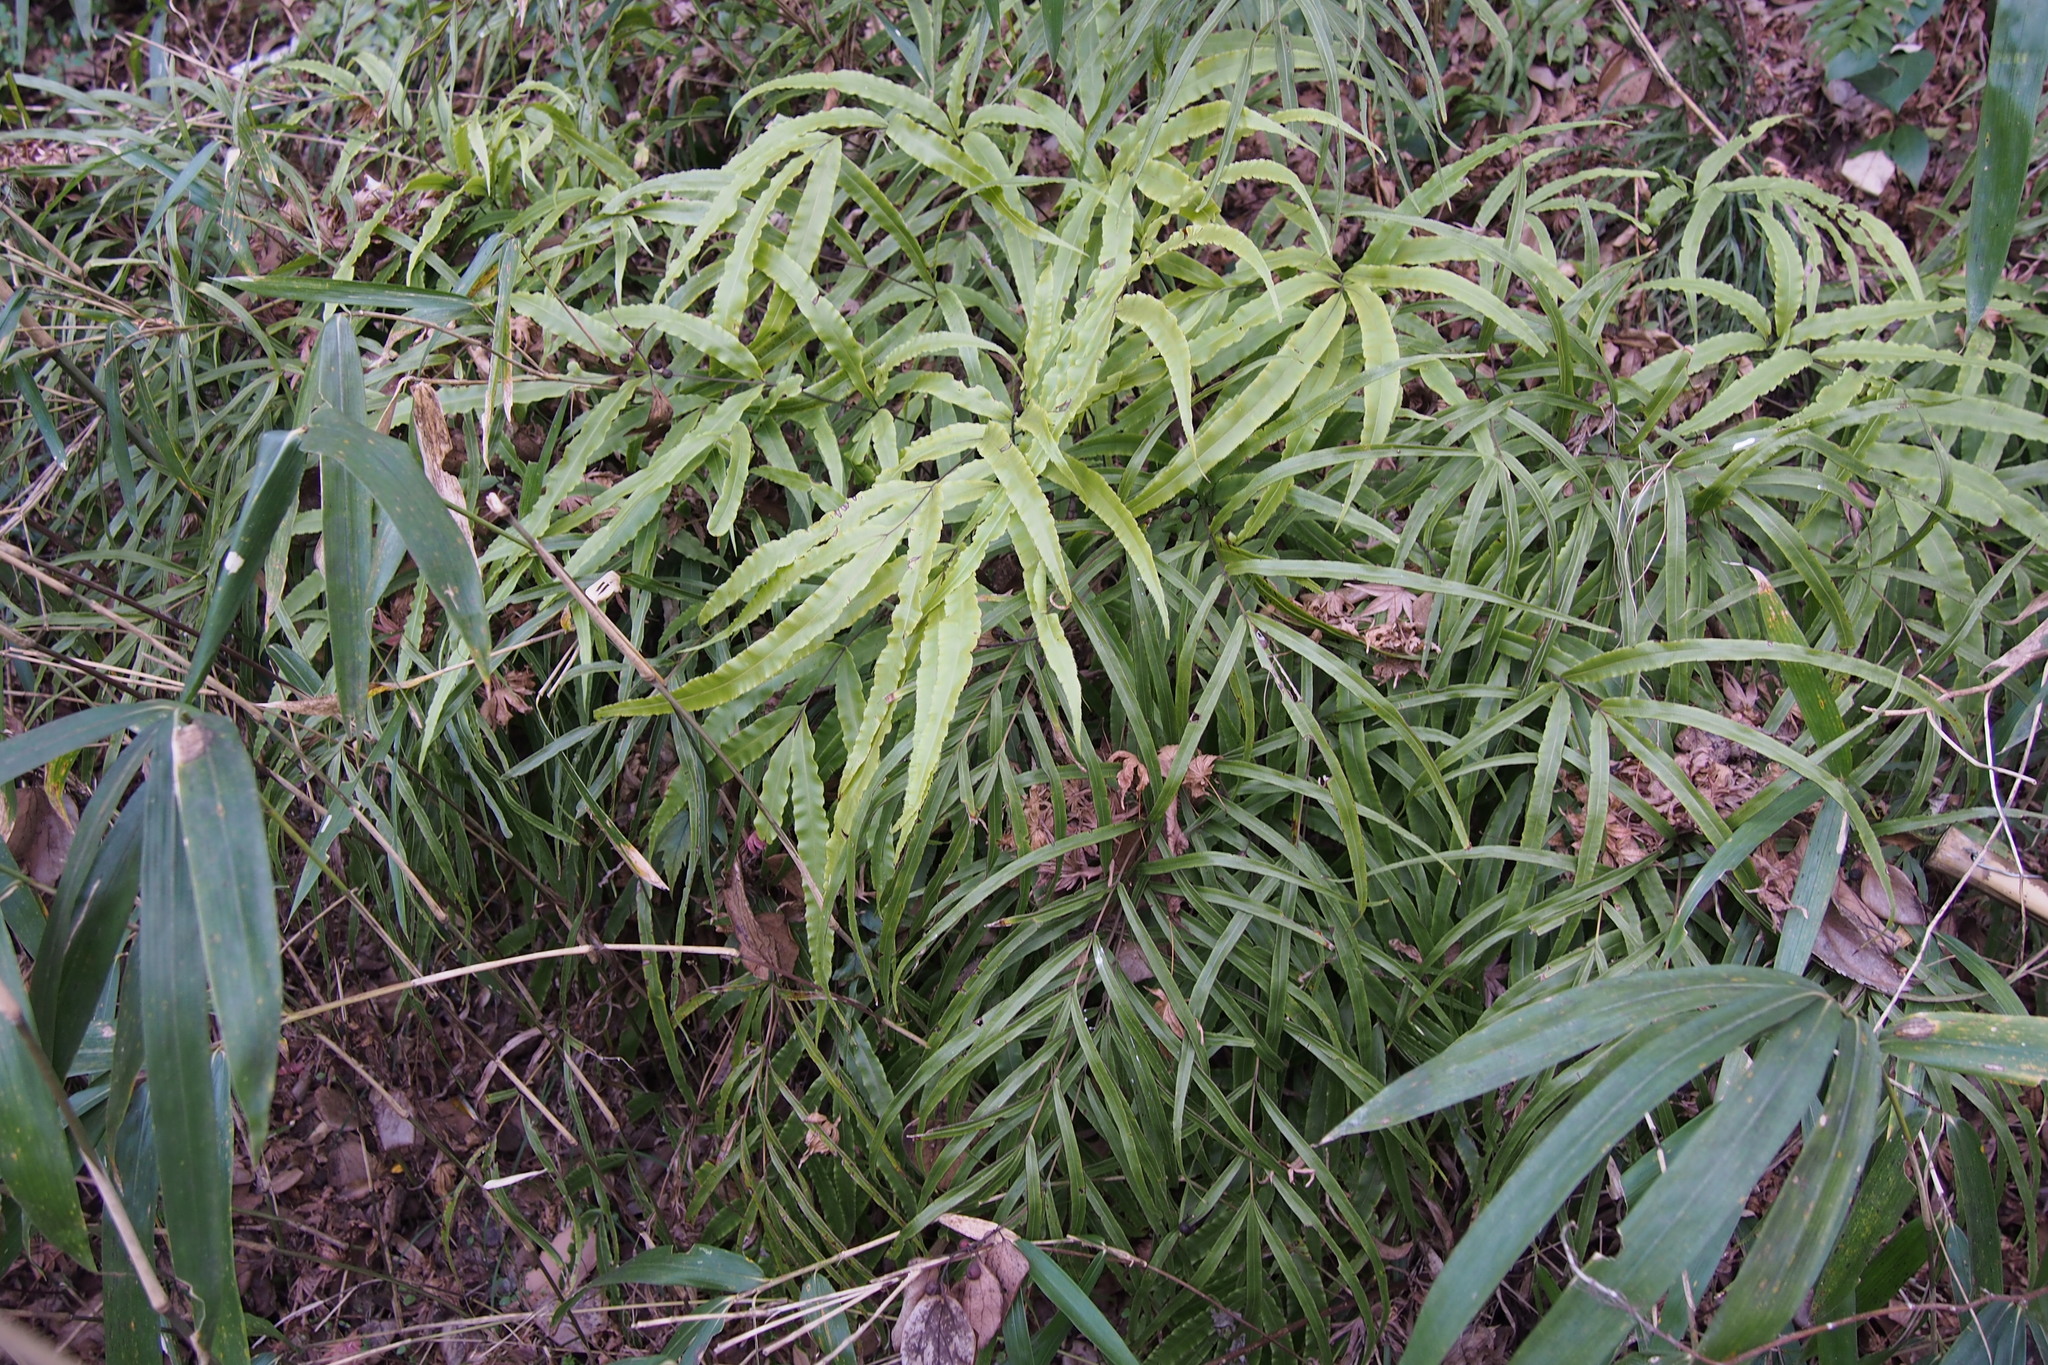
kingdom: Plantae
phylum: Tracheophyta
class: Polypodiopsida
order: Polypodiales
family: Pteridaceae
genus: Pteris
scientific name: Pteris cretica
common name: Ribbon fern
